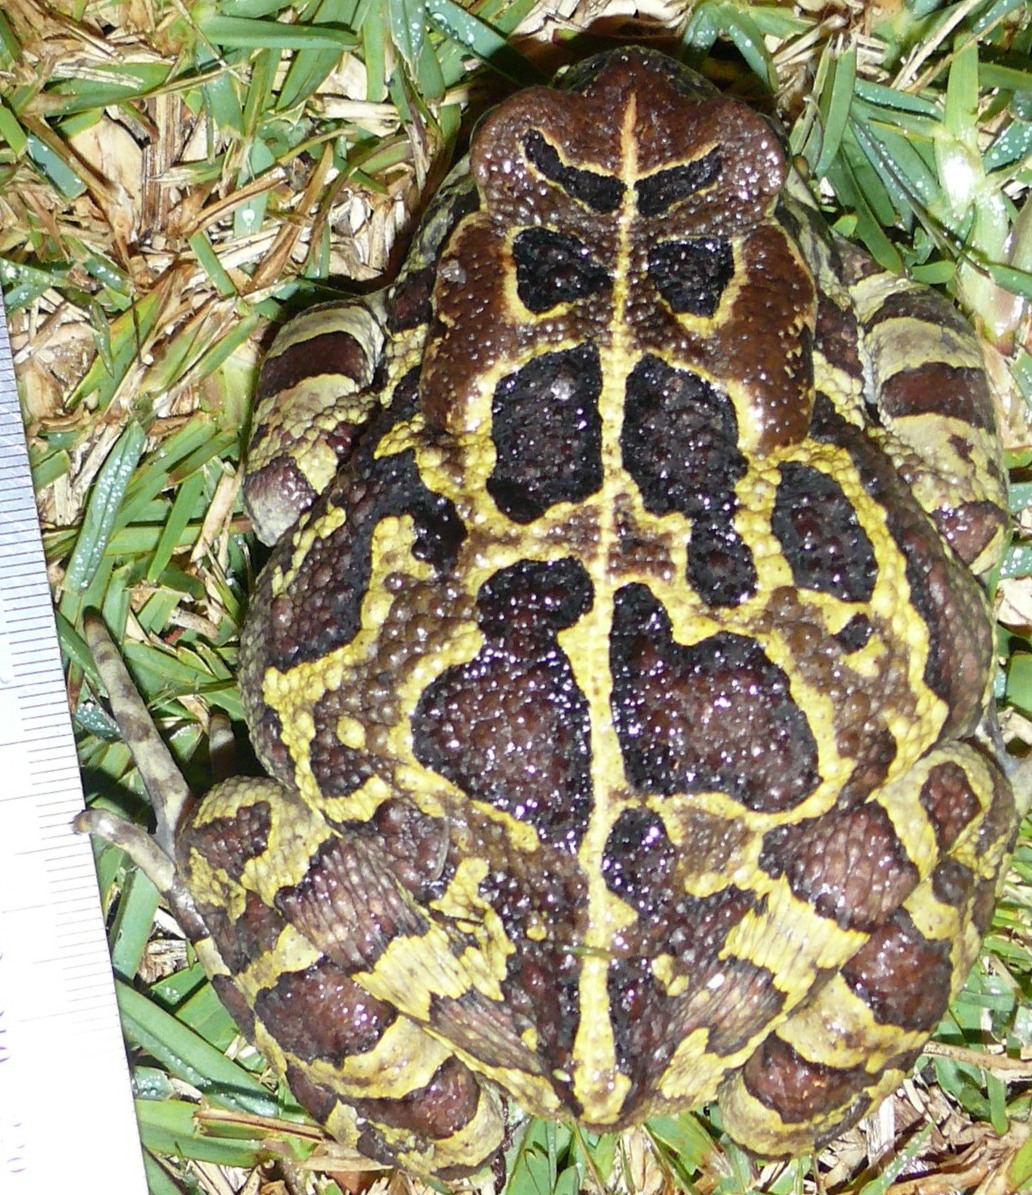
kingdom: Animalia
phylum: Chordata
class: Amphibia
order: Anura
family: Bufonidae
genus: Sclerophrys
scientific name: Sclerophrys pantherina
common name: Panther toad
